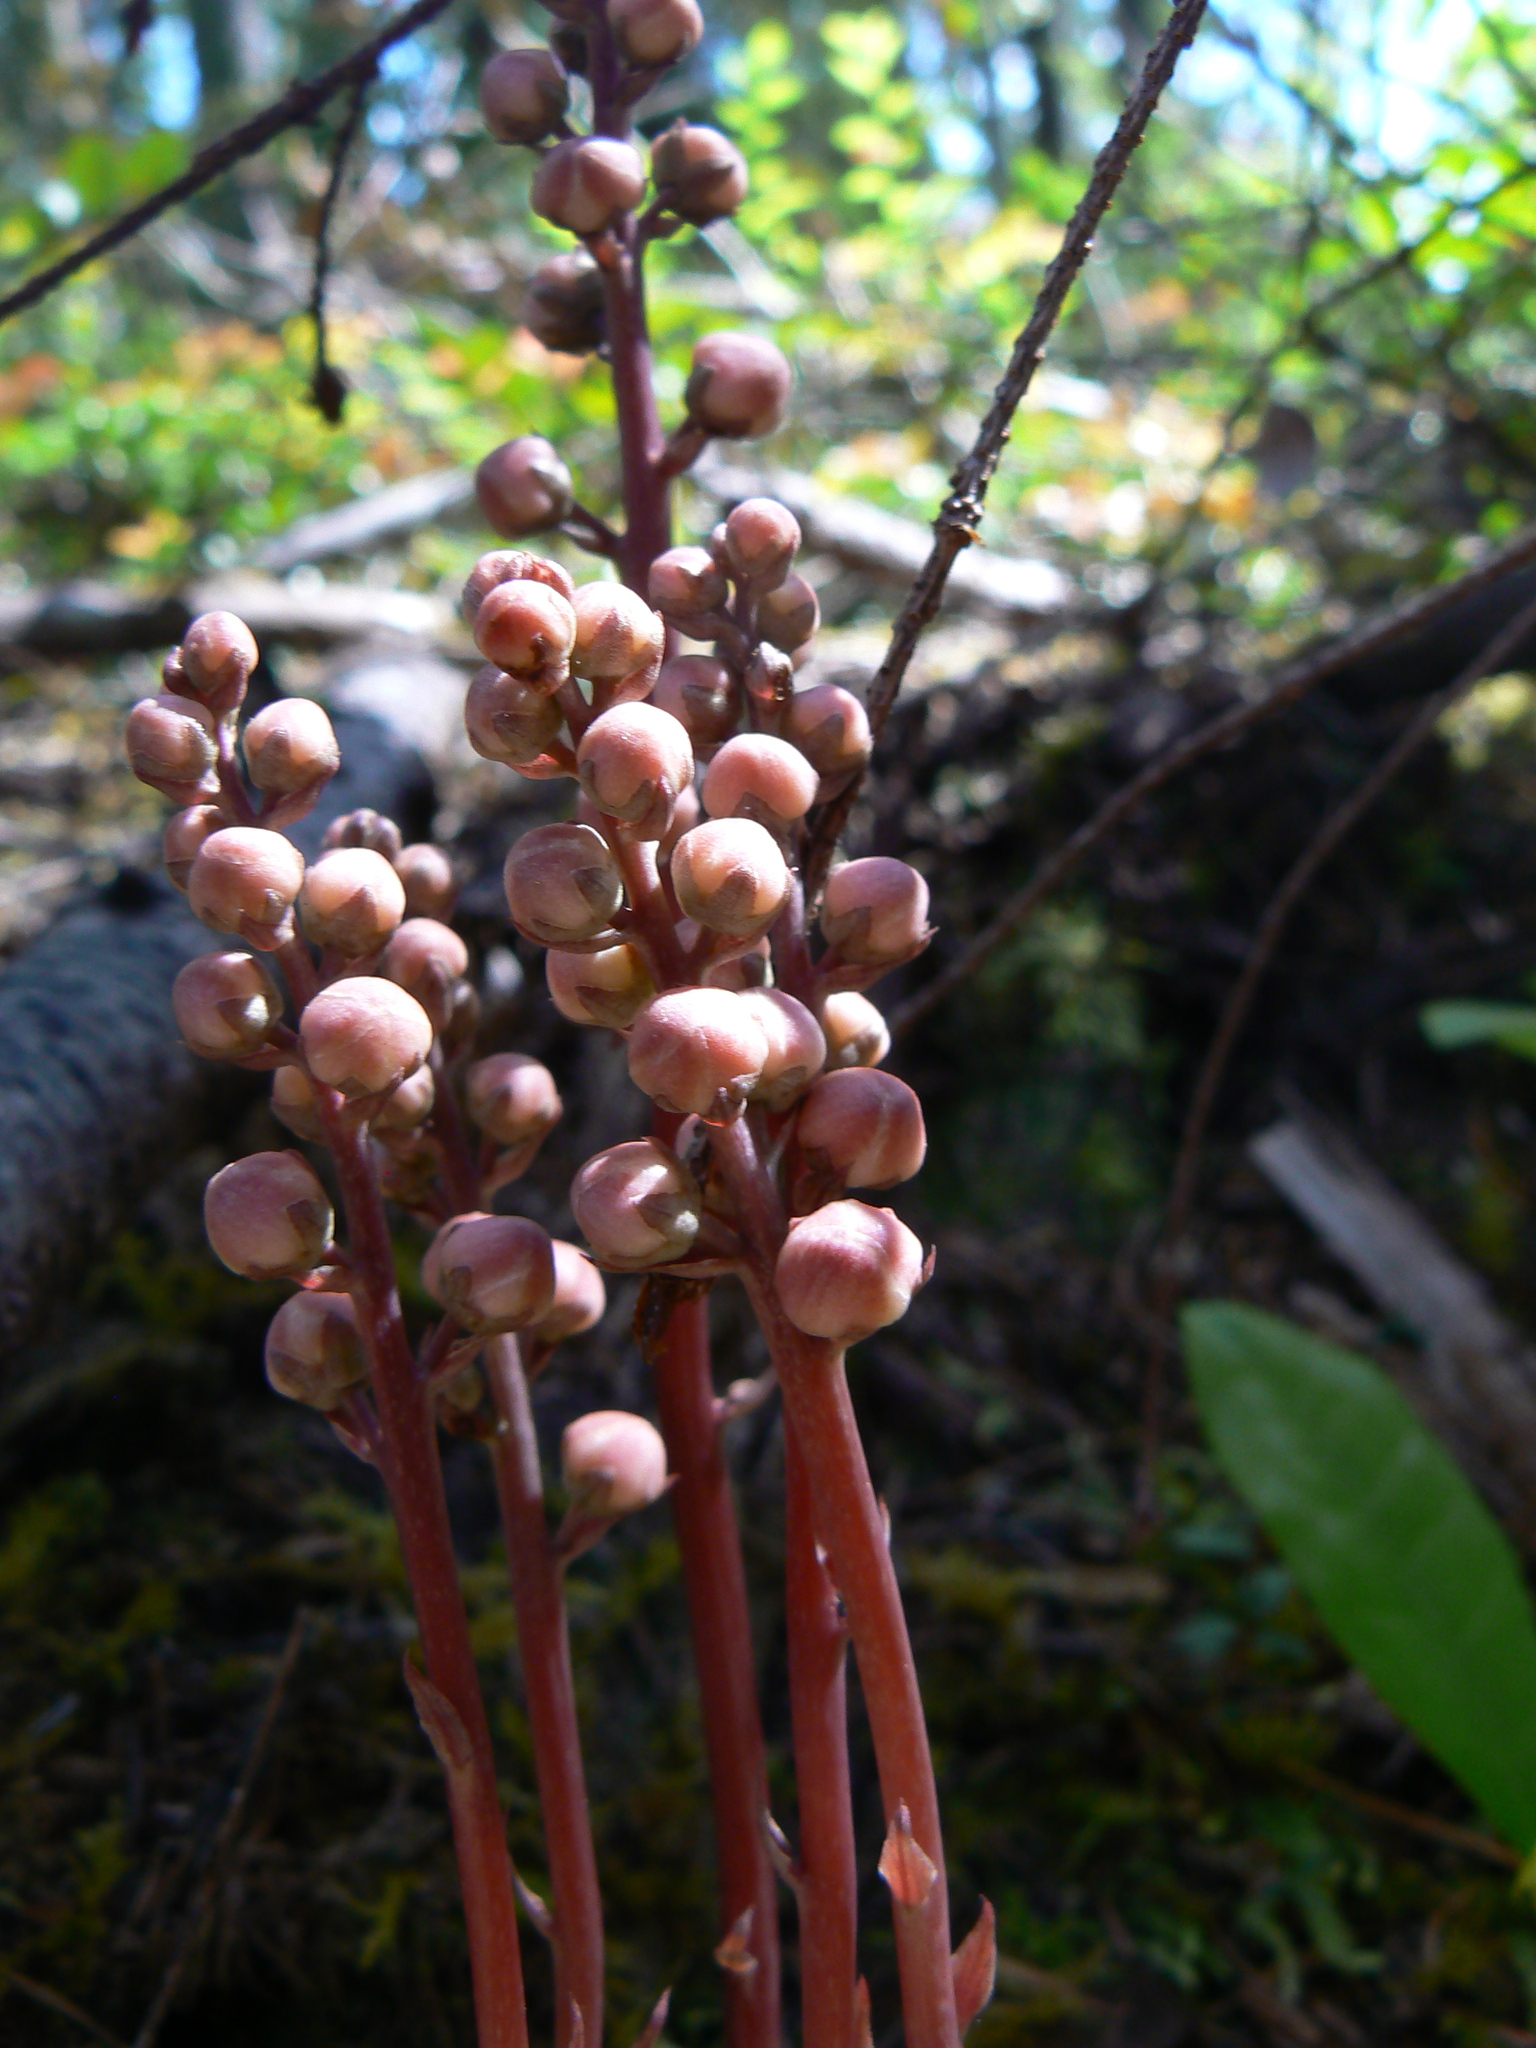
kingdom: Plantae
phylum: Tracheophyta
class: Magnoliopsida
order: Ericales
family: Ericaceae
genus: Pyrola
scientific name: Pyrola aphylla
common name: Leafless wintergreen
